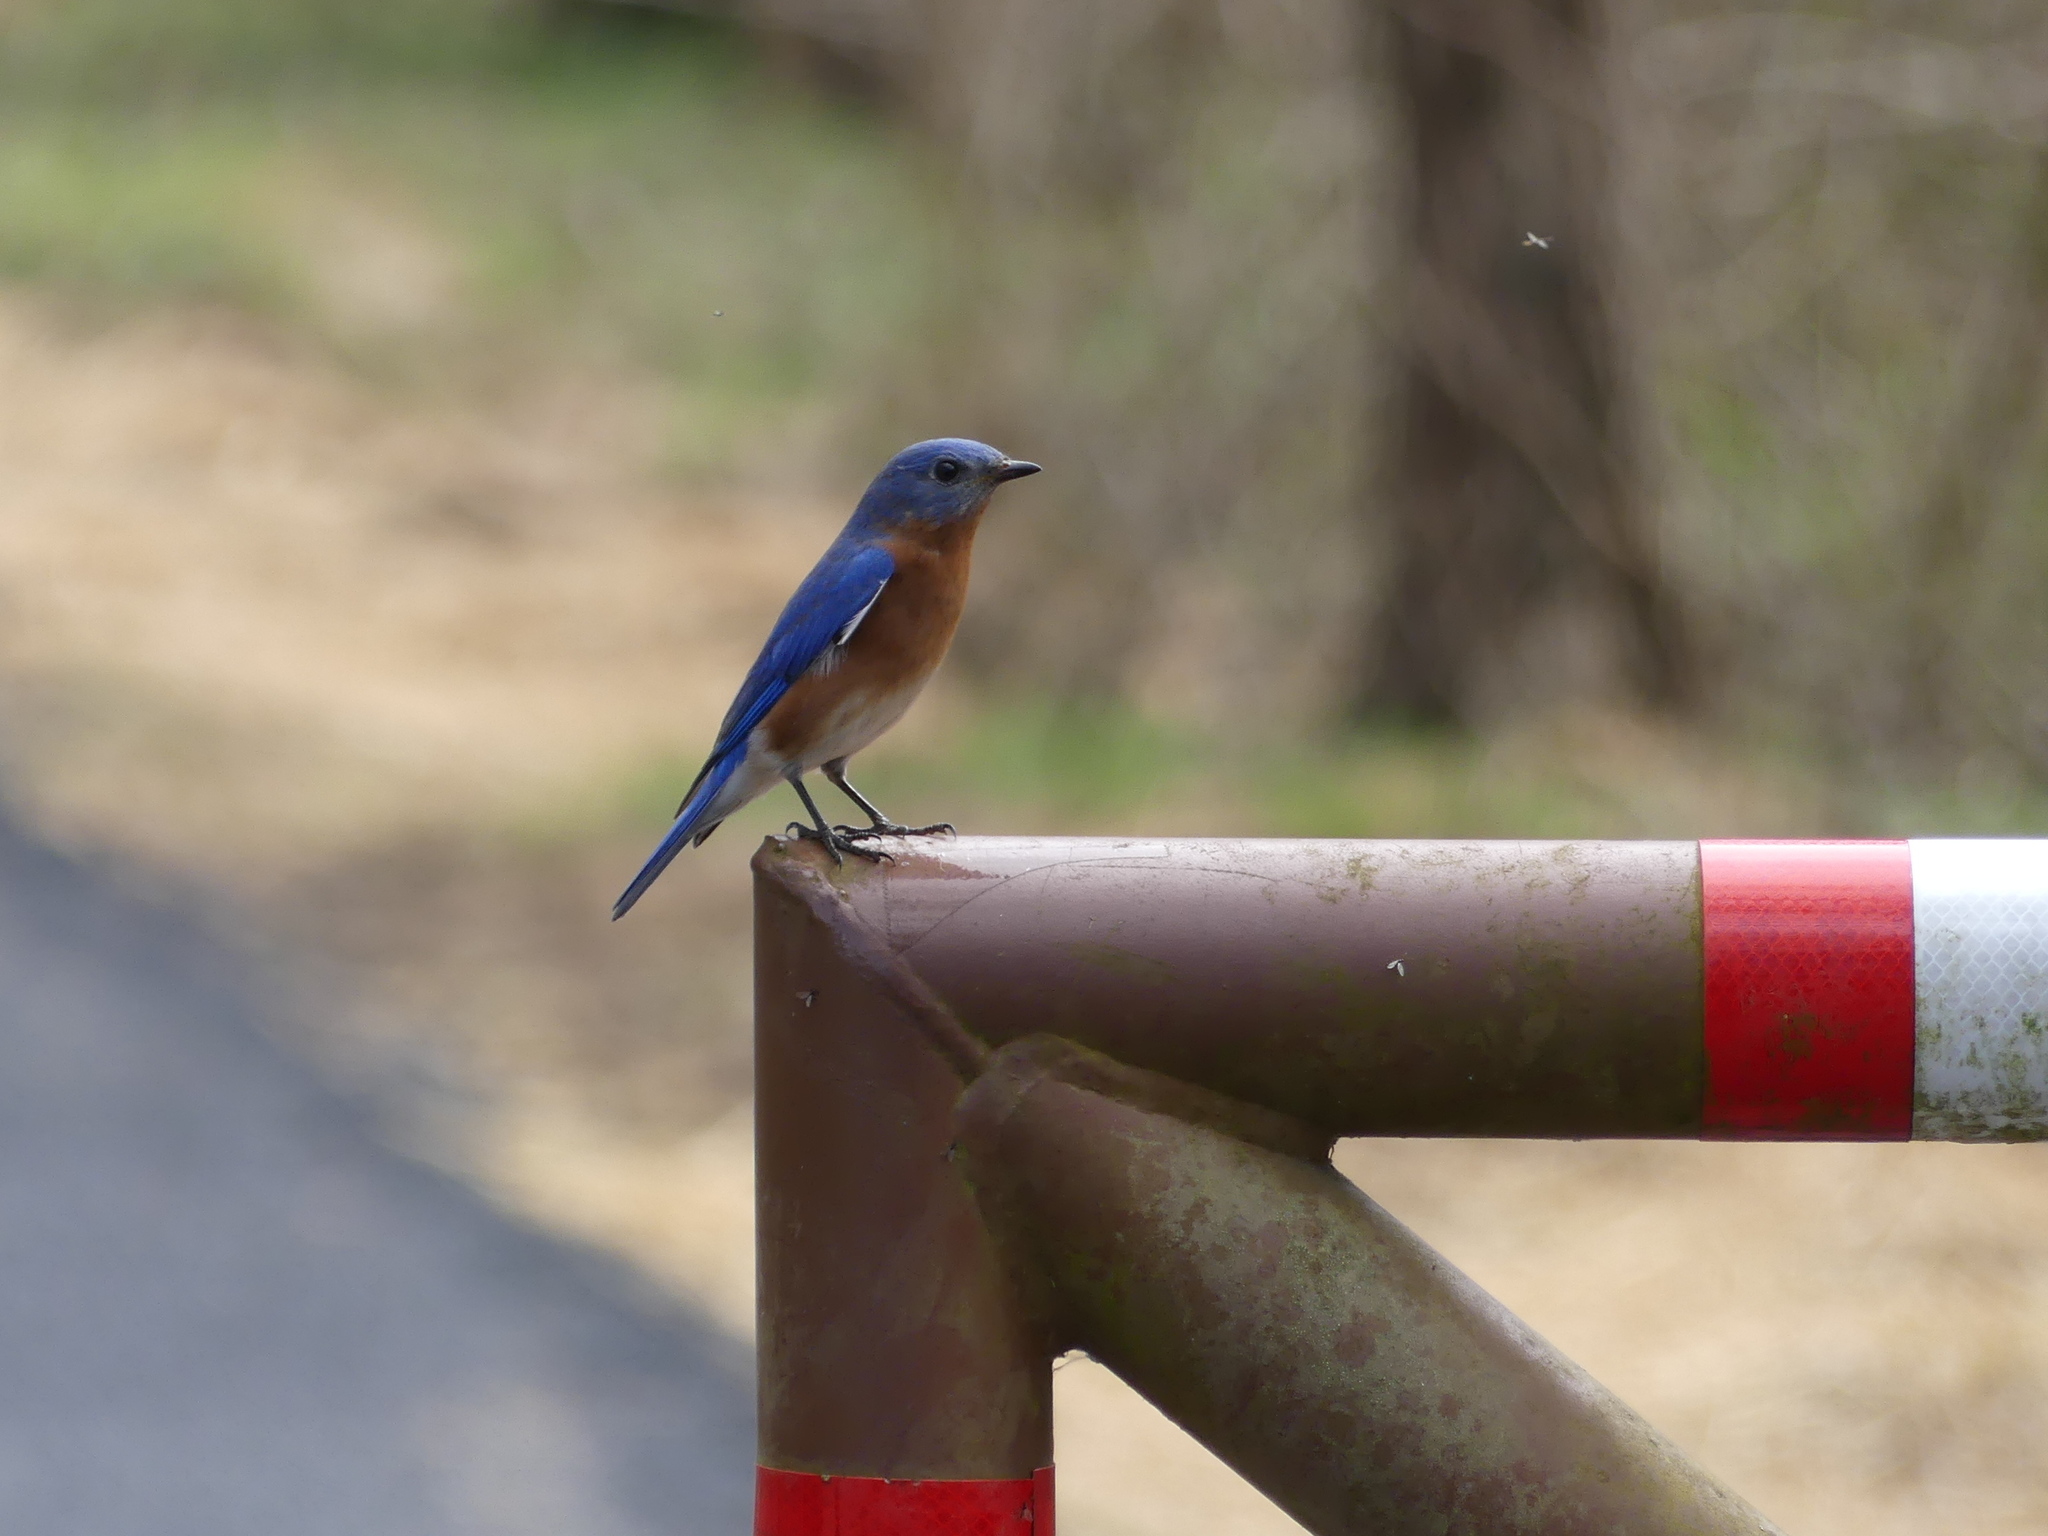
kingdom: Animalia
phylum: Chordata
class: Aves
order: Passeriformes
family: Turdidae
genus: Sialia
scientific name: Sialia sialis
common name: Eastern bluebird
